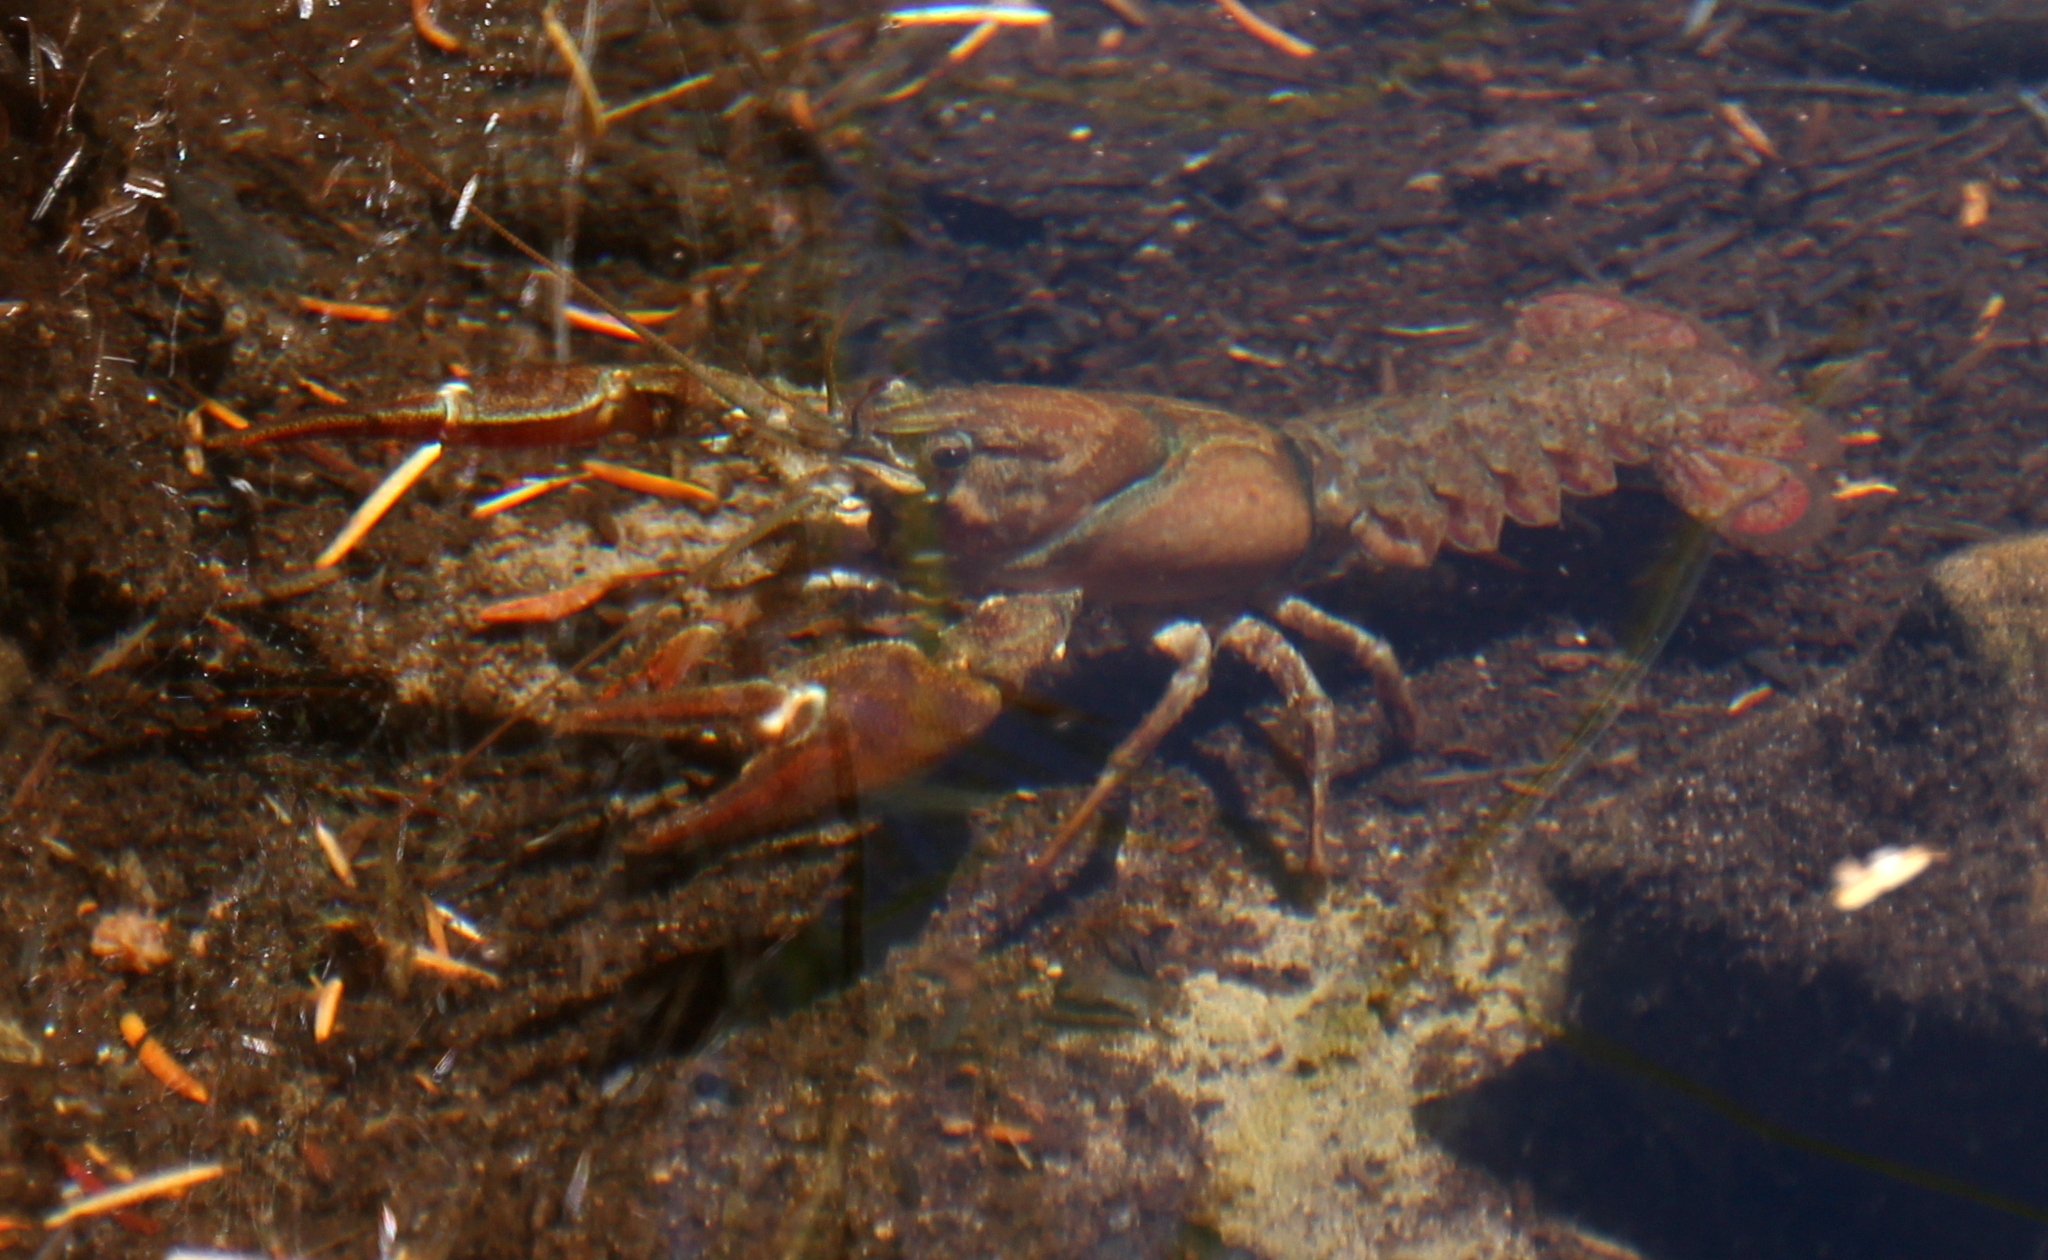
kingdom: Animalia
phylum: Arthropoda
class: Malacostraca
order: Decapoda
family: Astacidae
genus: Pacifastacus
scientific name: Pacifastacus leniusculus
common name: Signal crayfish
